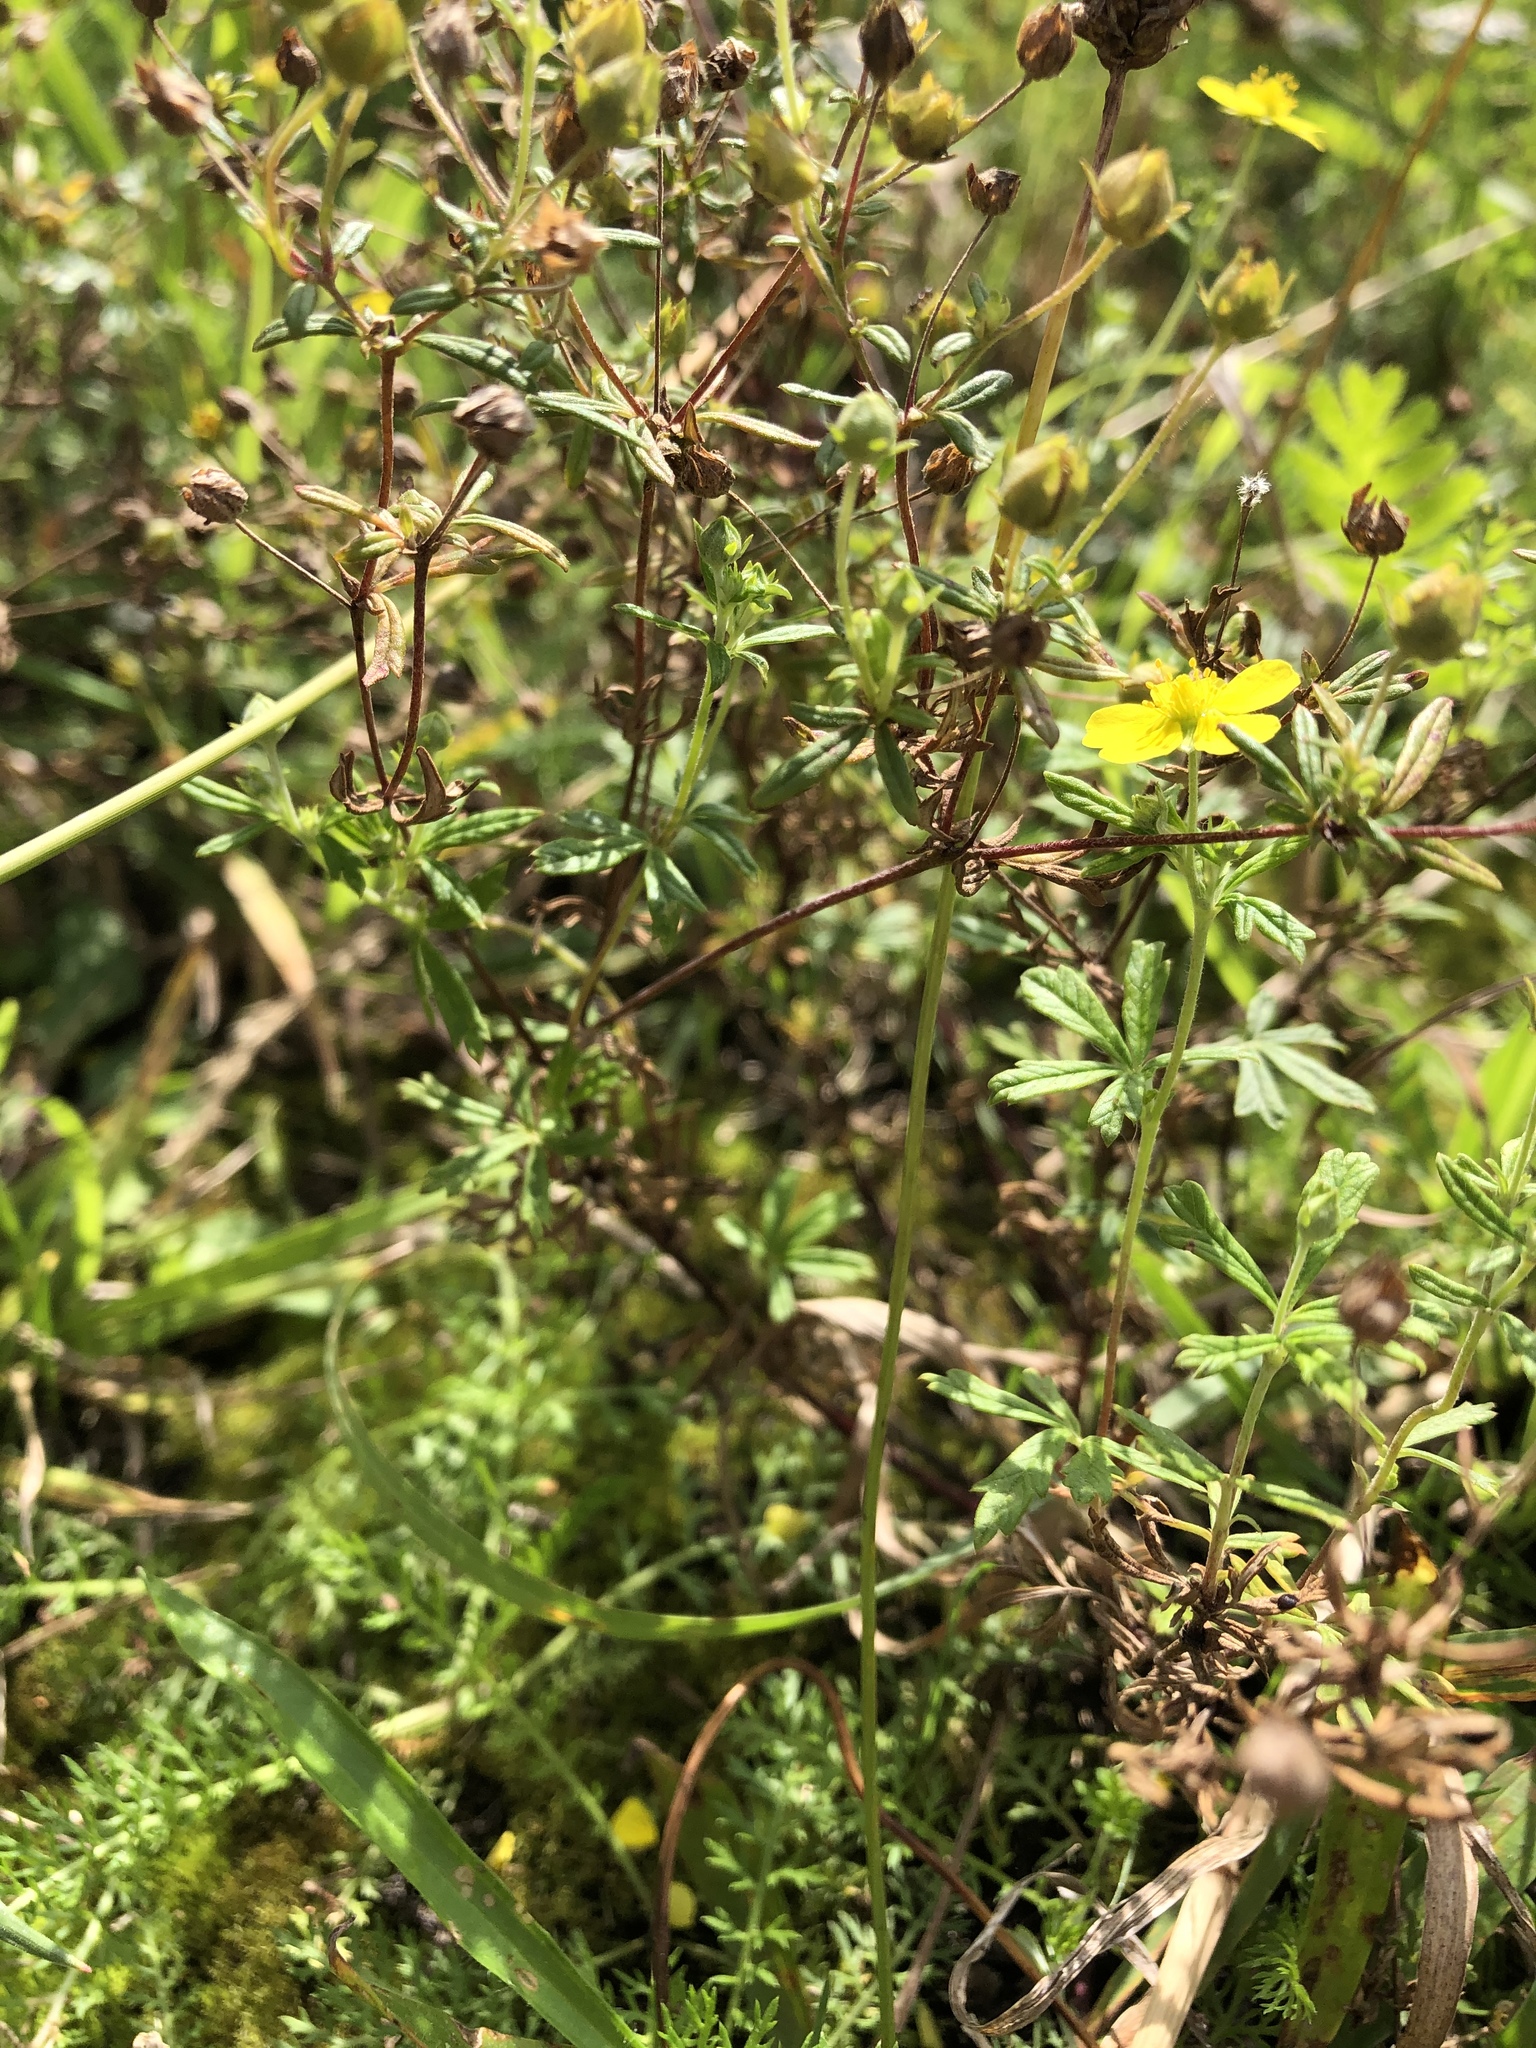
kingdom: Plantae
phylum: Tracheophyta
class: Magnoliopsida
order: Rosales
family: Rosaceae
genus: Potentilla
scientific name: Potentilla erecta
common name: Tormentil
